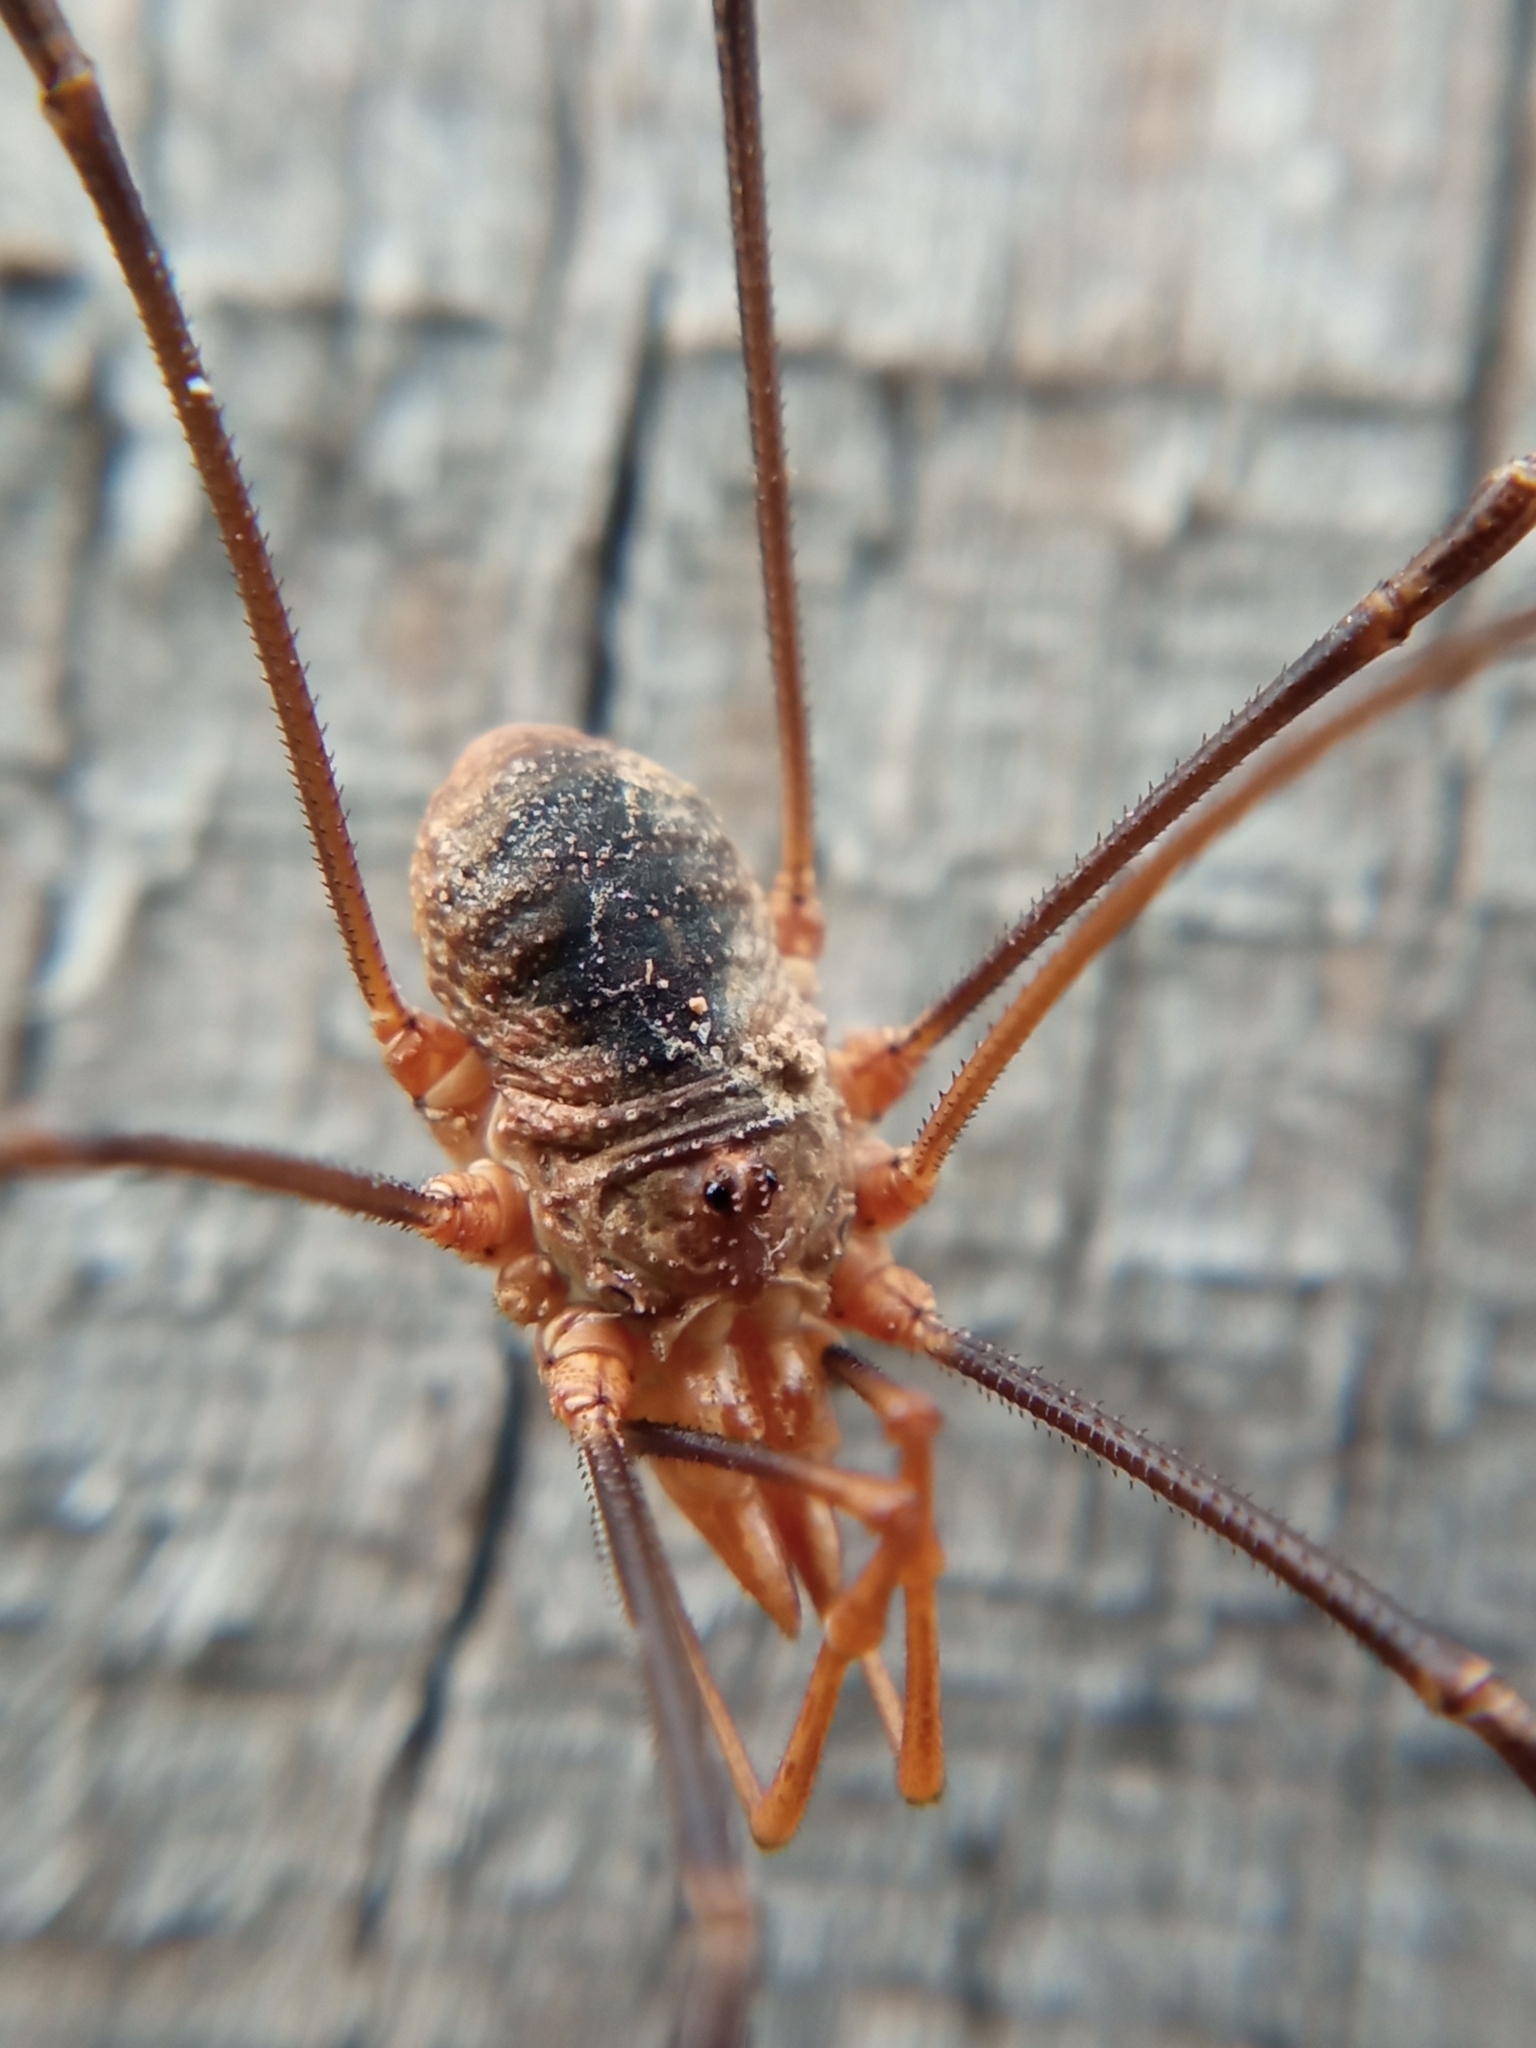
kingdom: Animalia
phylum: Arthropoda
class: Arachnida
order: Opiliones
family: Phalangiidae
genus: Phalangium
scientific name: Phalangium opilio
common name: Daddy longleg
